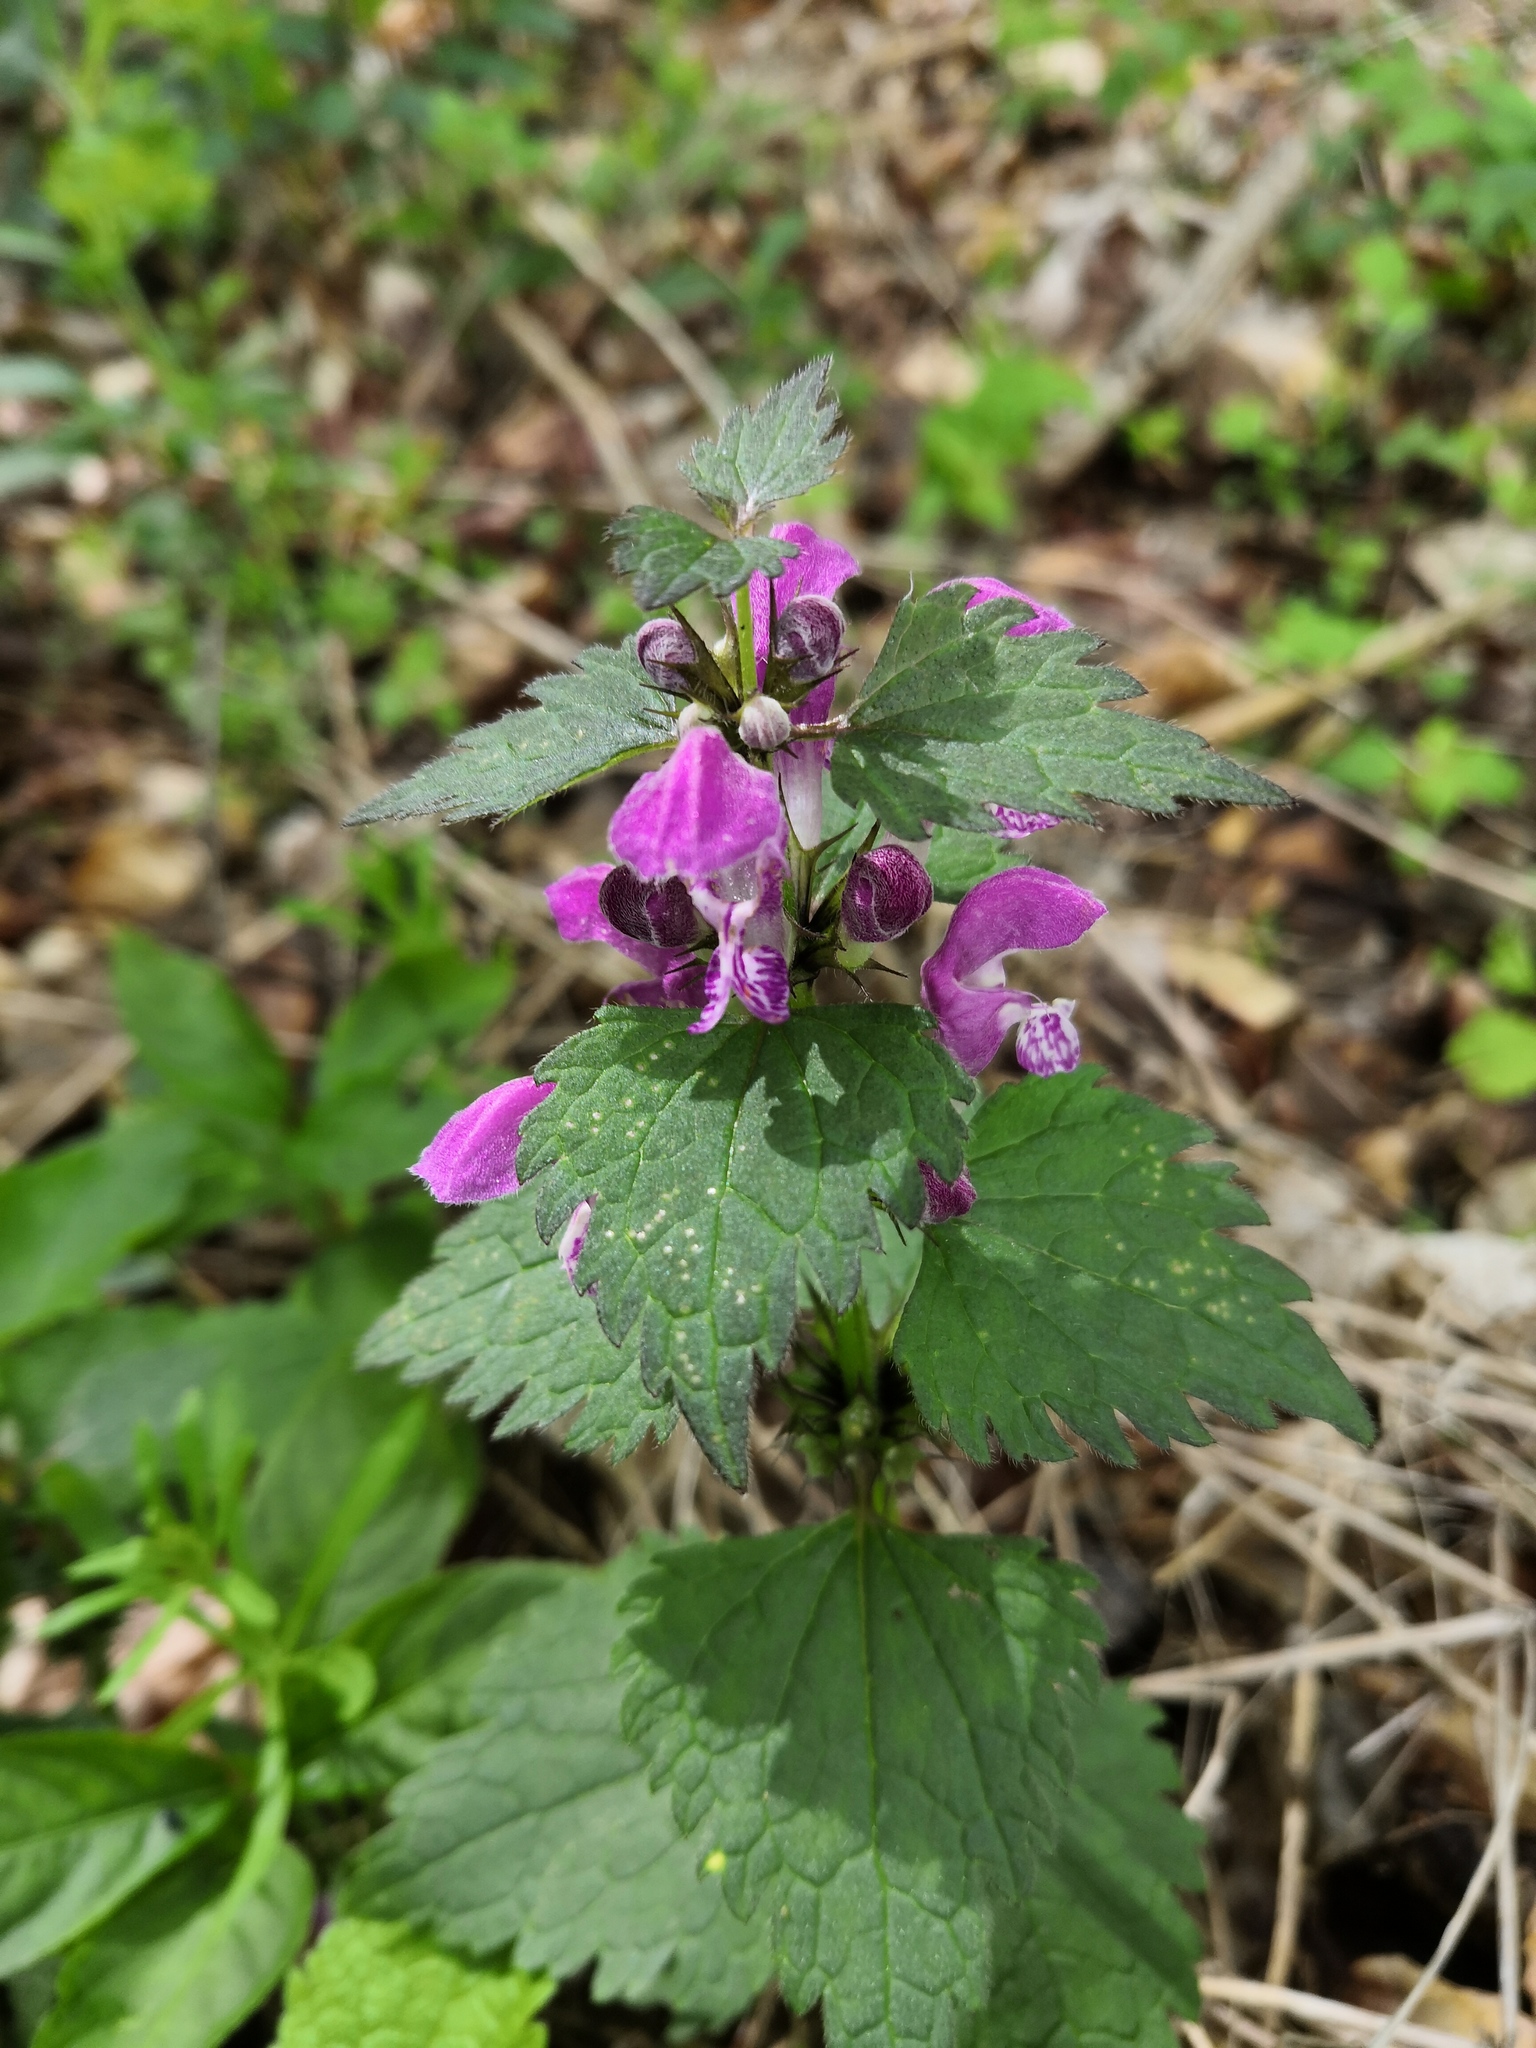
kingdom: Plantae
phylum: Tracheophyta
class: Magnoliopsida
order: Lamiales
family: Lamiaceae
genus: Lamium
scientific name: Lamium maculatum
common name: Spotted dead-nettle
